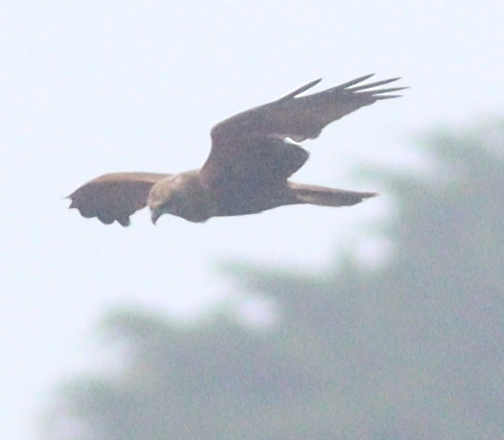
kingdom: Animalia
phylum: Chordata
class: Aves
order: Accipitriformes
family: Accipitridae
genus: Circus
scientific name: Circus aeruginosus
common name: Western marsh harrier
